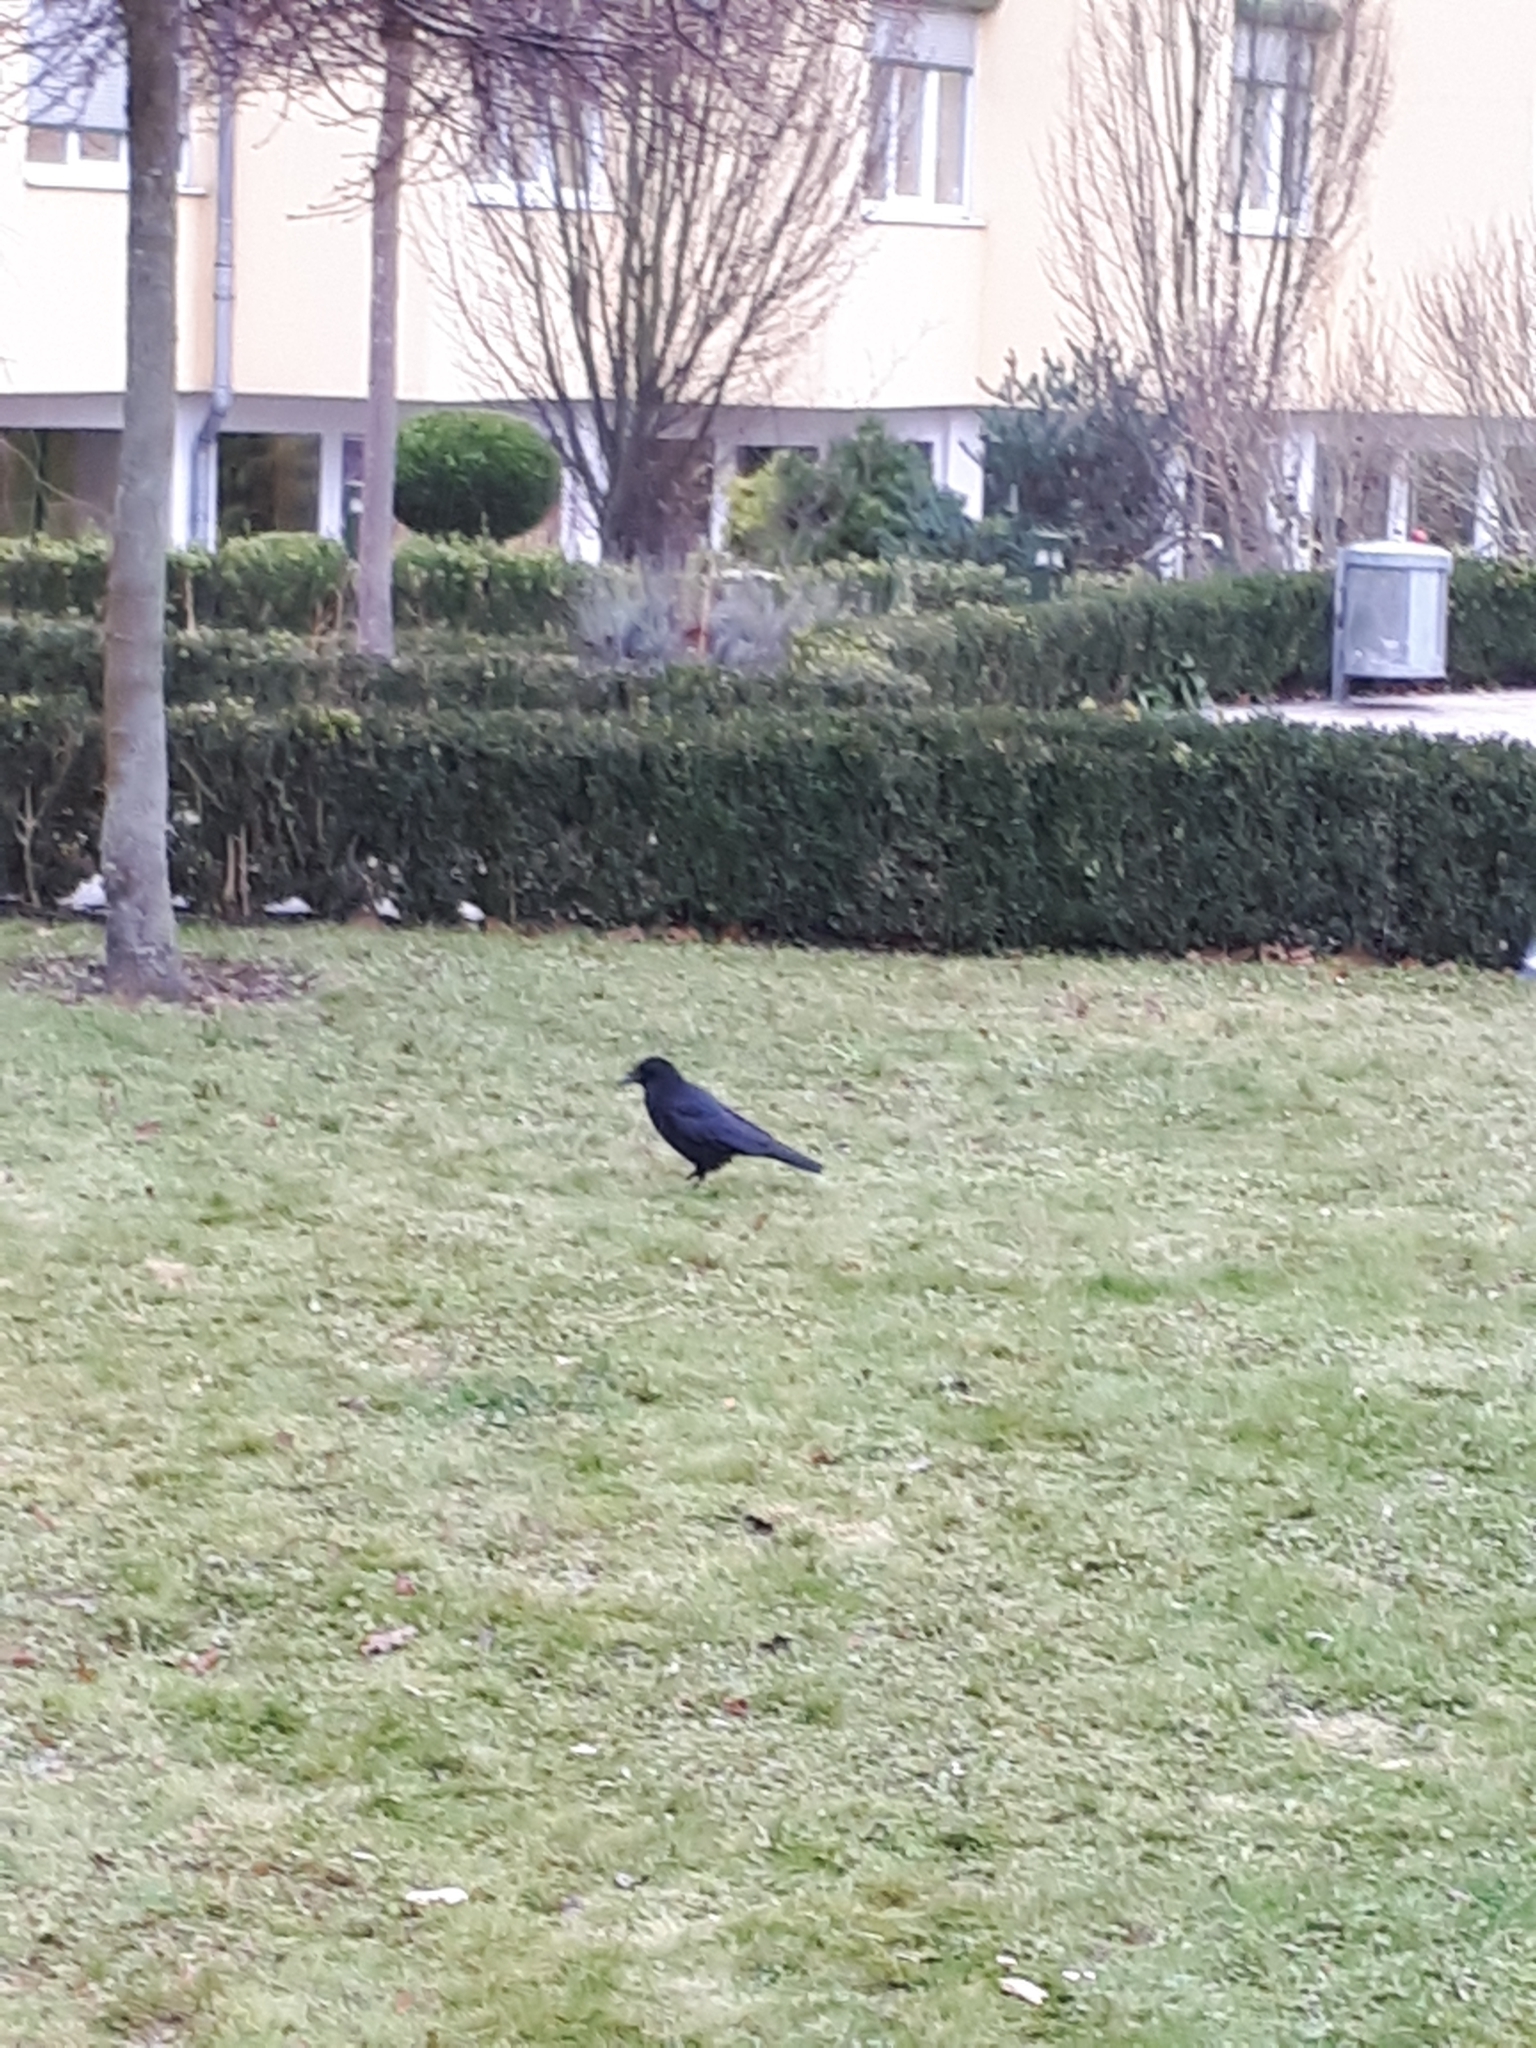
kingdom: Animalia
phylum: Chordata
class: Aves
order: Passeriformes
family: Corvidae
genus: Corvus
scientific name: Corvus corone
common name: Carrion crow
